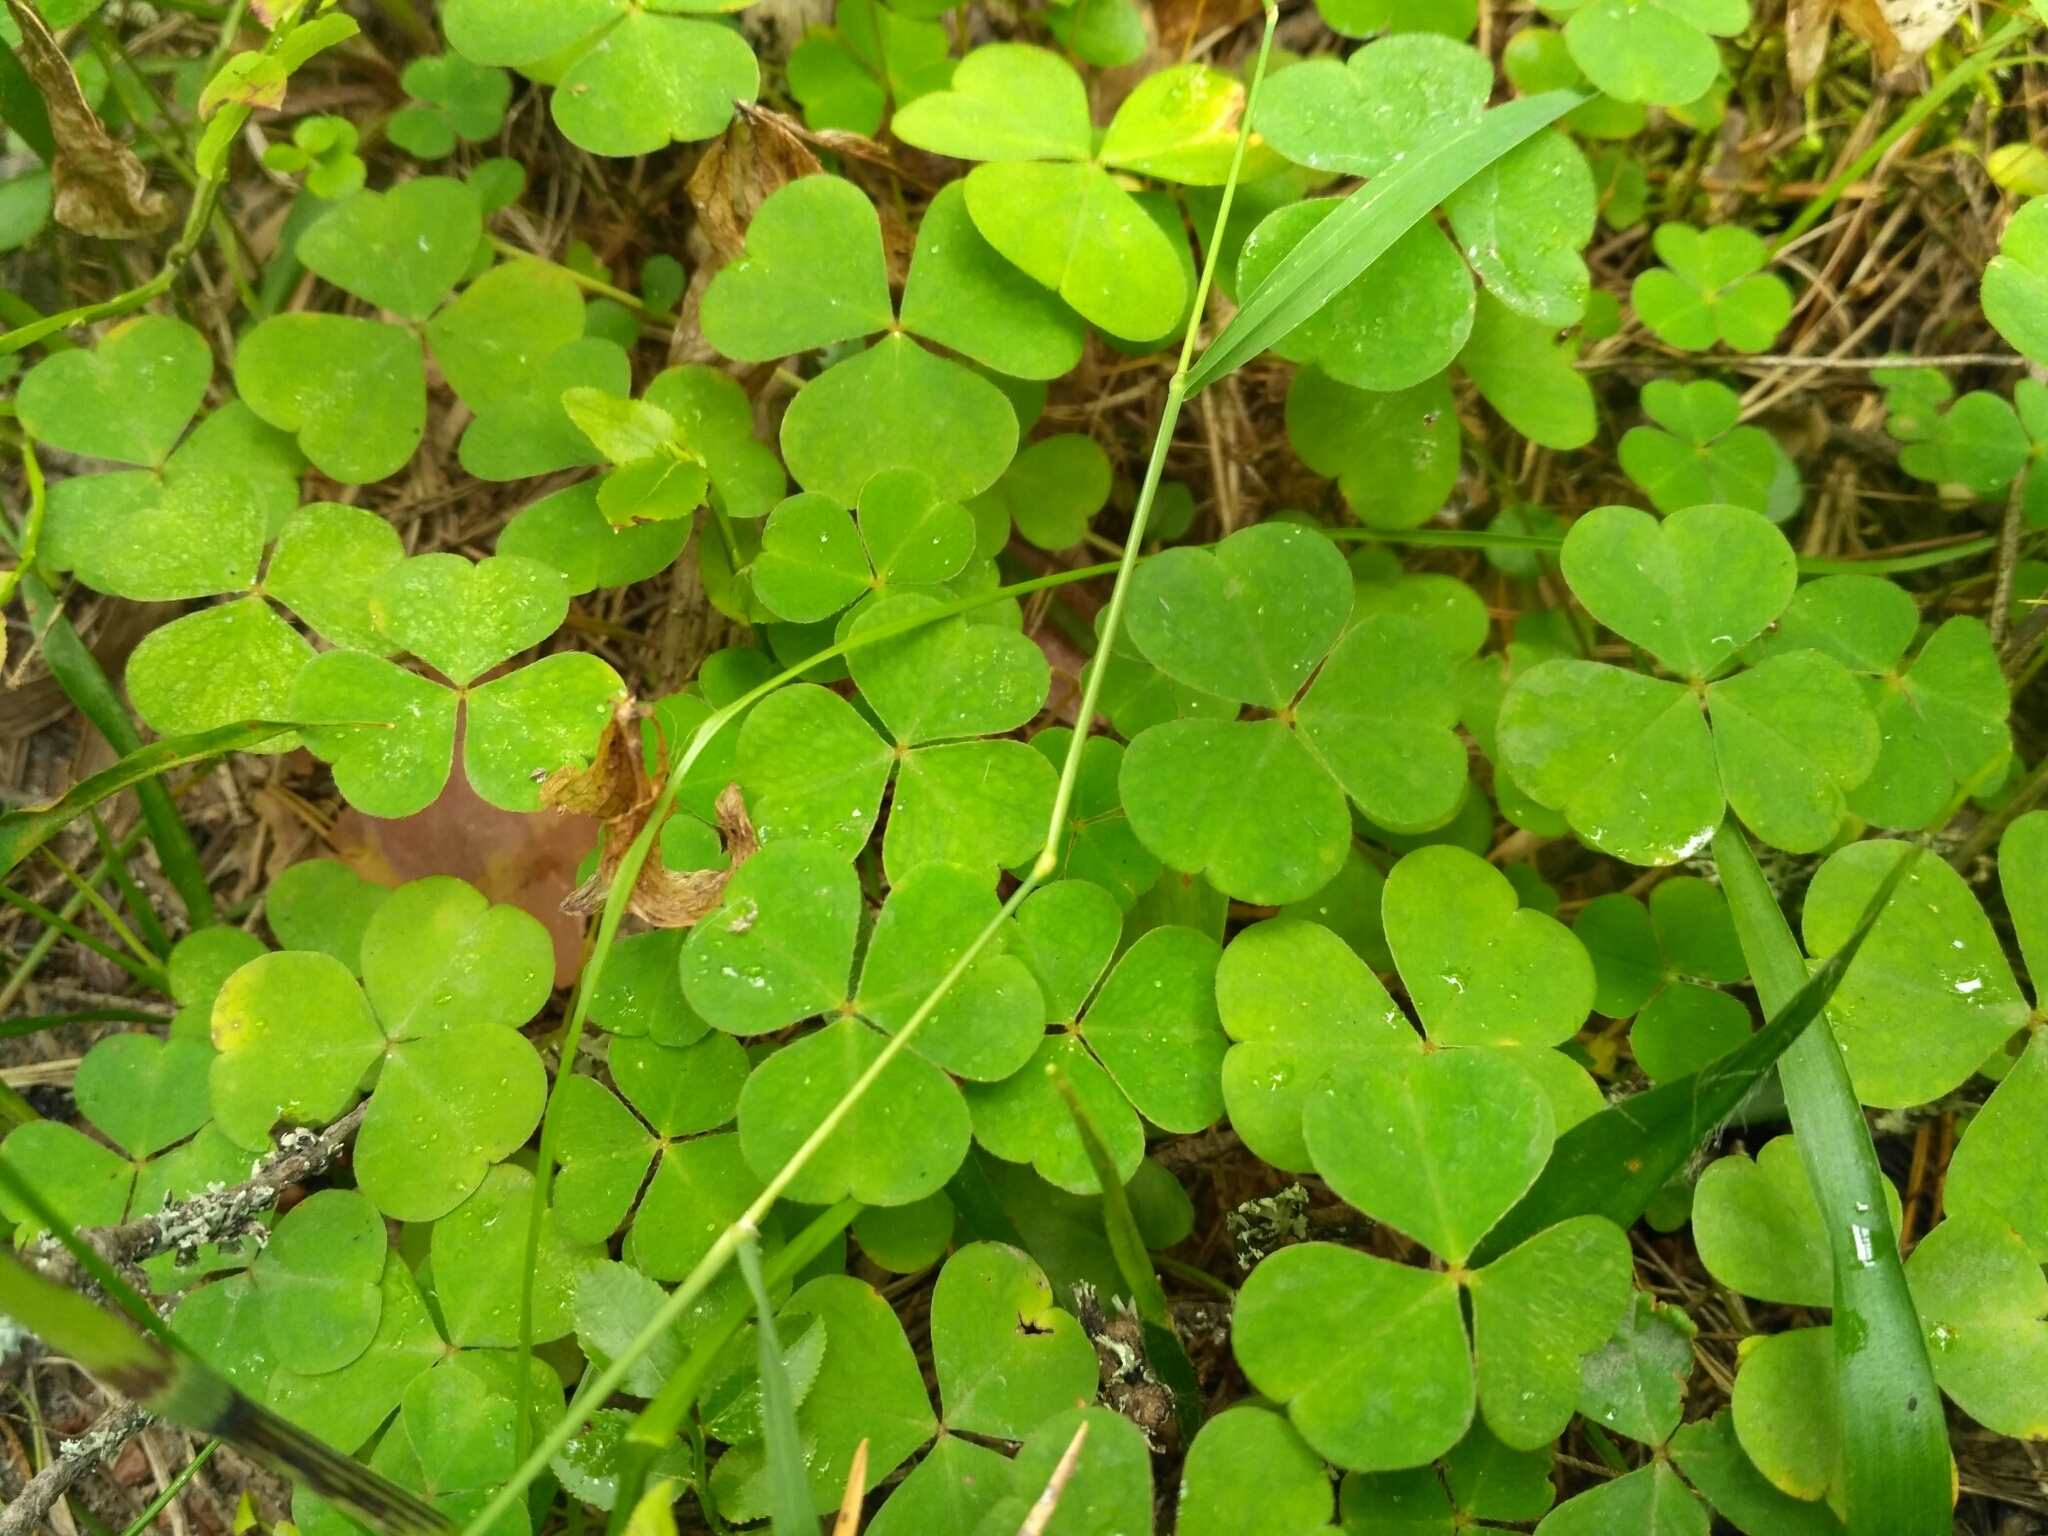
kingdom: Plantae
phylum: Tracheophyta
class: Magnoliopsida
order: Oxalidales
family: Oxalidaceae
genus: Oxalis
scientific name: Oxalis acetosella
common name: Wood-sorrel
